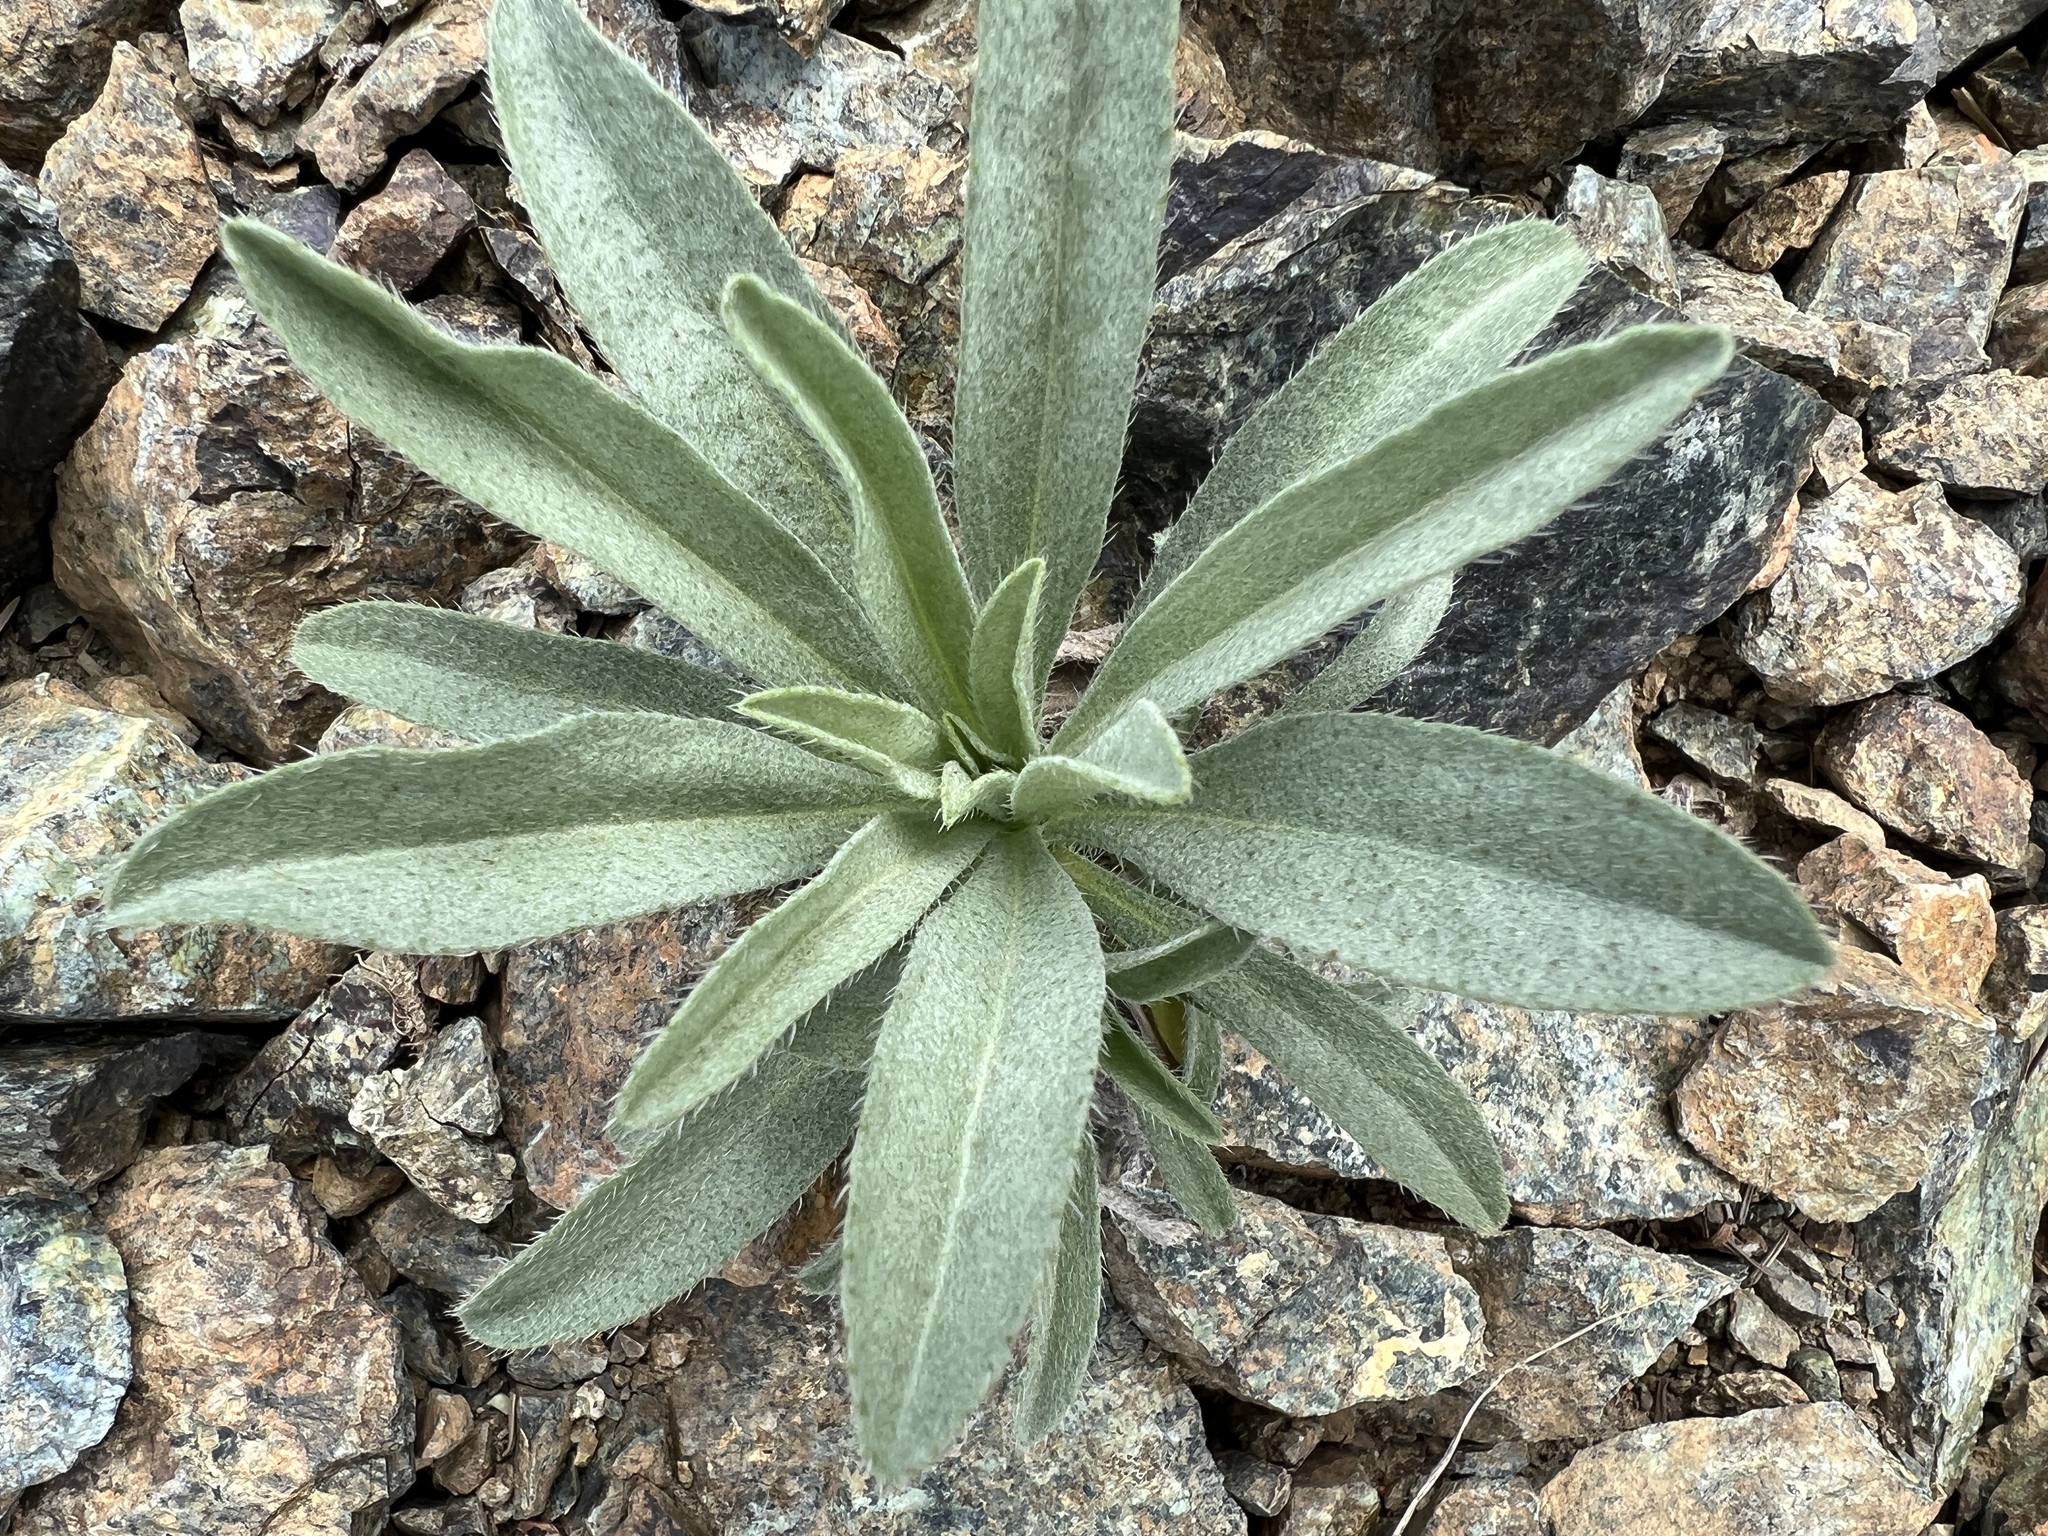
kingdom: Plantae
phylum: Tracheophyta
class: Magnoliopsida
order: Boraginales
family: Boraginaceae
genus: Oreocarya
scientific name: Oreocarya thompsonii
